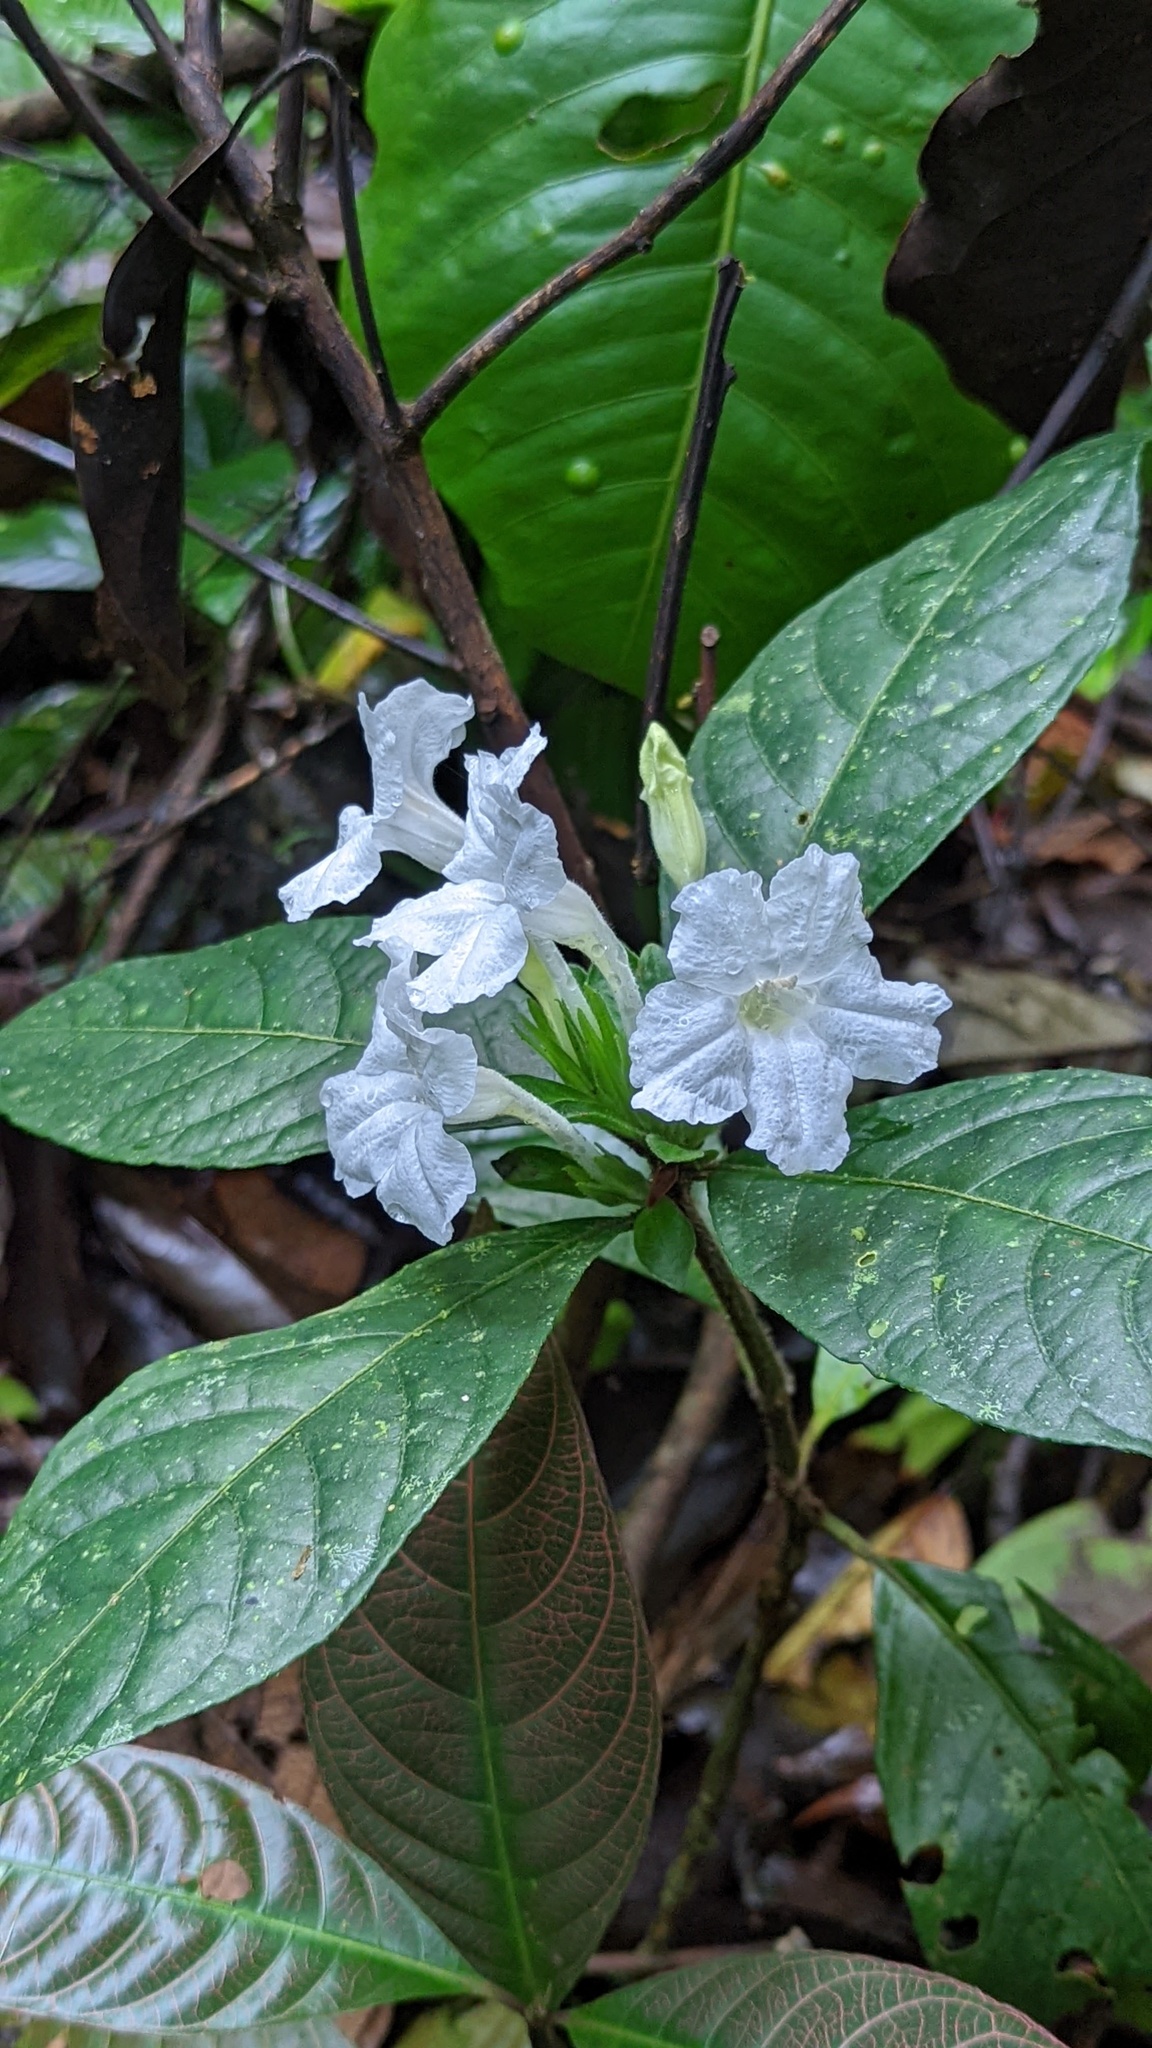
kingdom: Plantae
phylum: Tracheophyta
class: Magnoliopsida
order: Lamiales
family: Acanthaceae
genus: Ruellia
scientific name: Ruellia tubiflora
